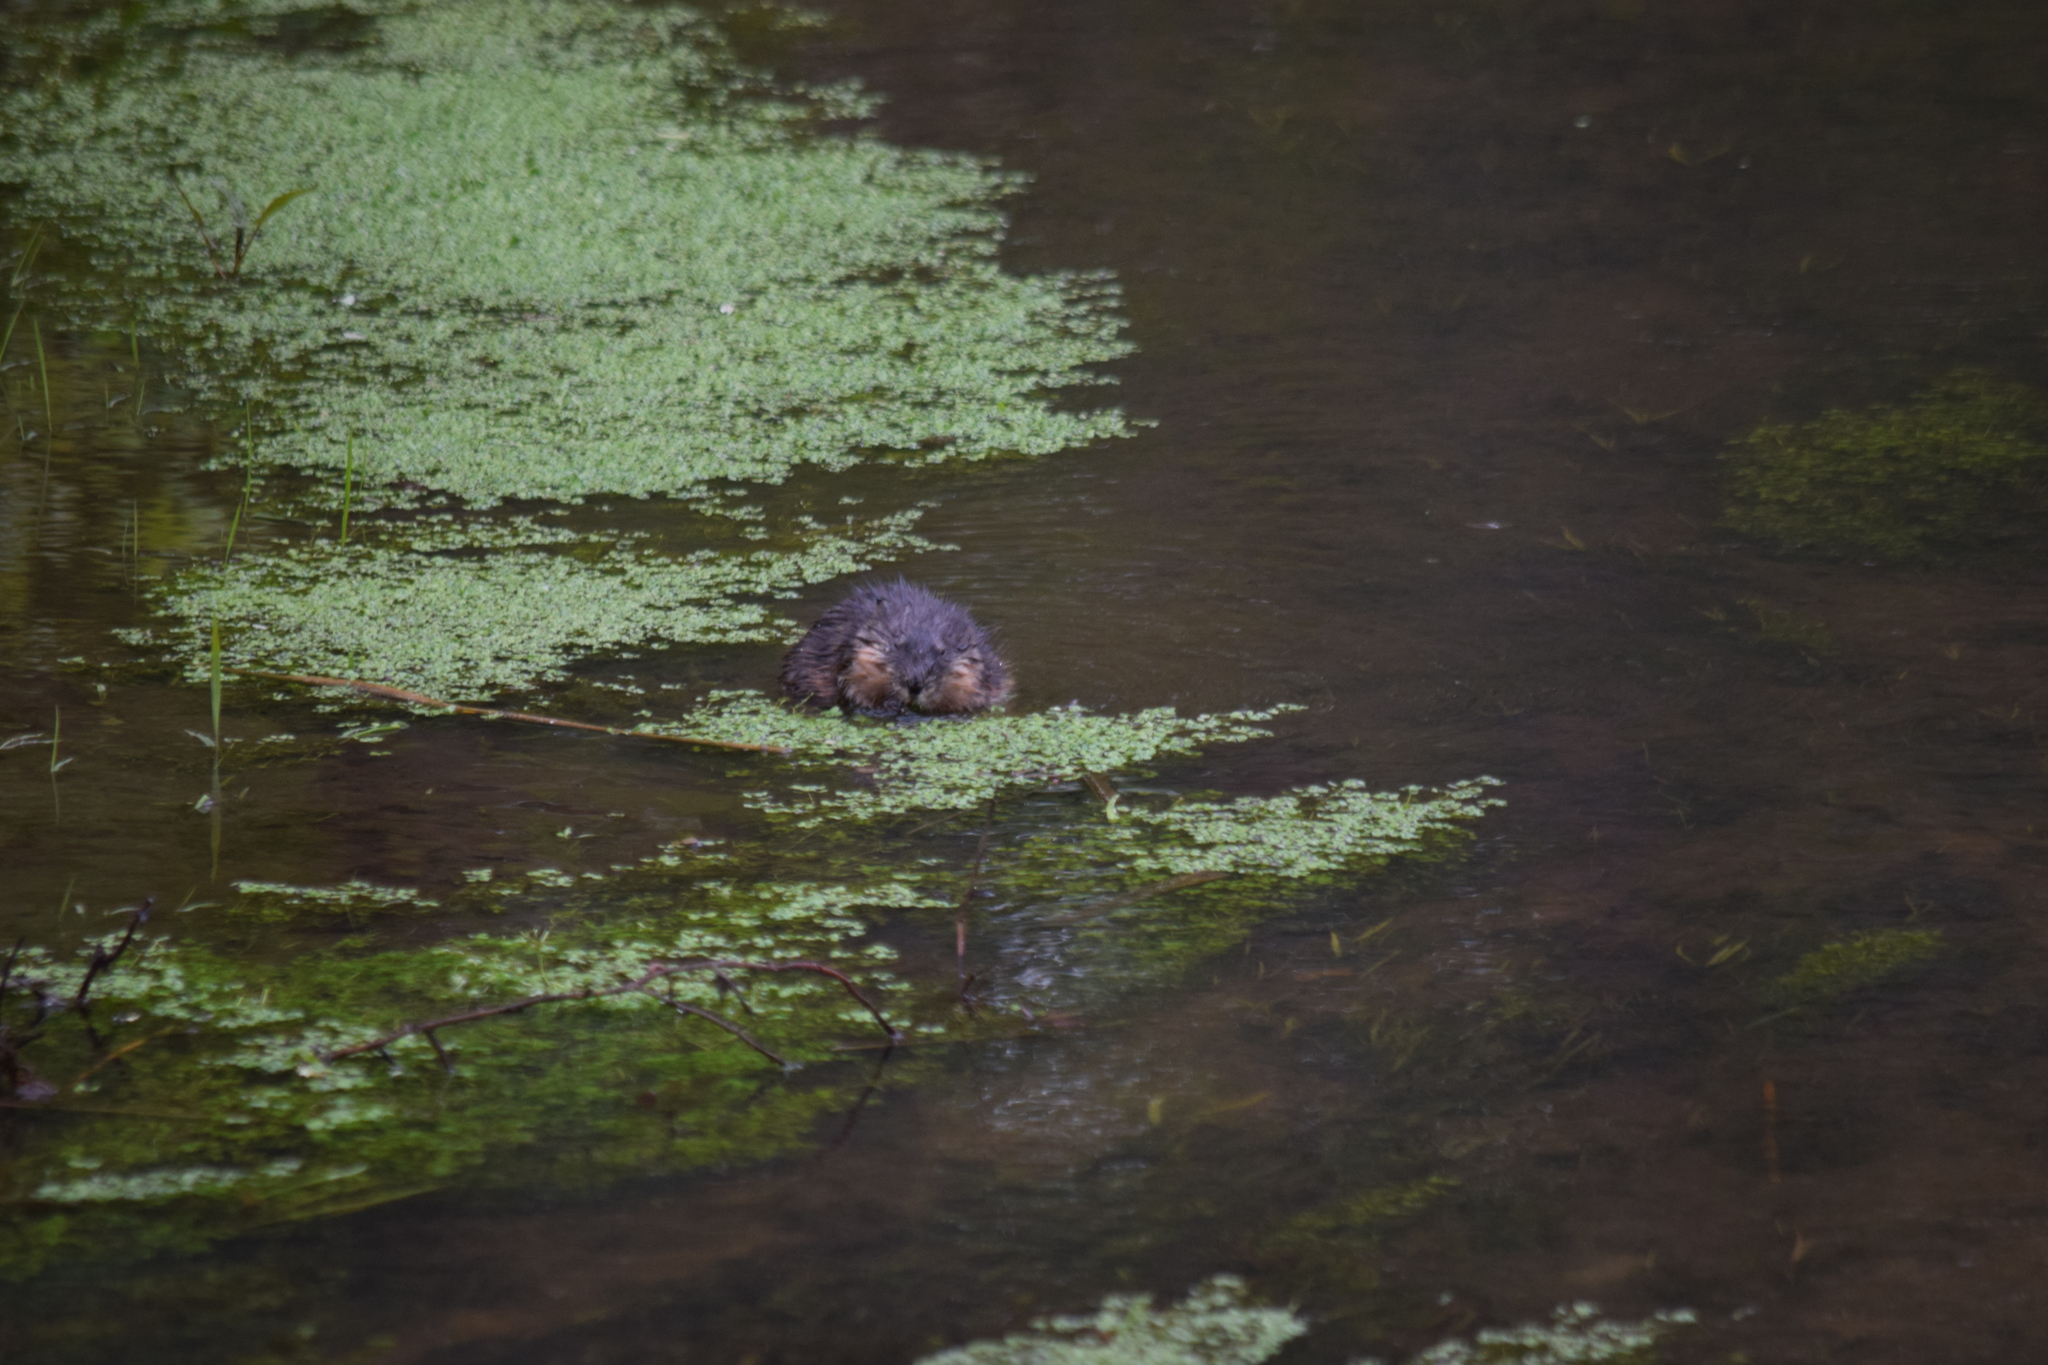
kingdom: Animalia
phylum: Chordata
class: Mammalia
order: Rodentia
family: Cricetidae
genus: Ondatra
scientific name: Ondatra zibethicus
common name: Muskrat
